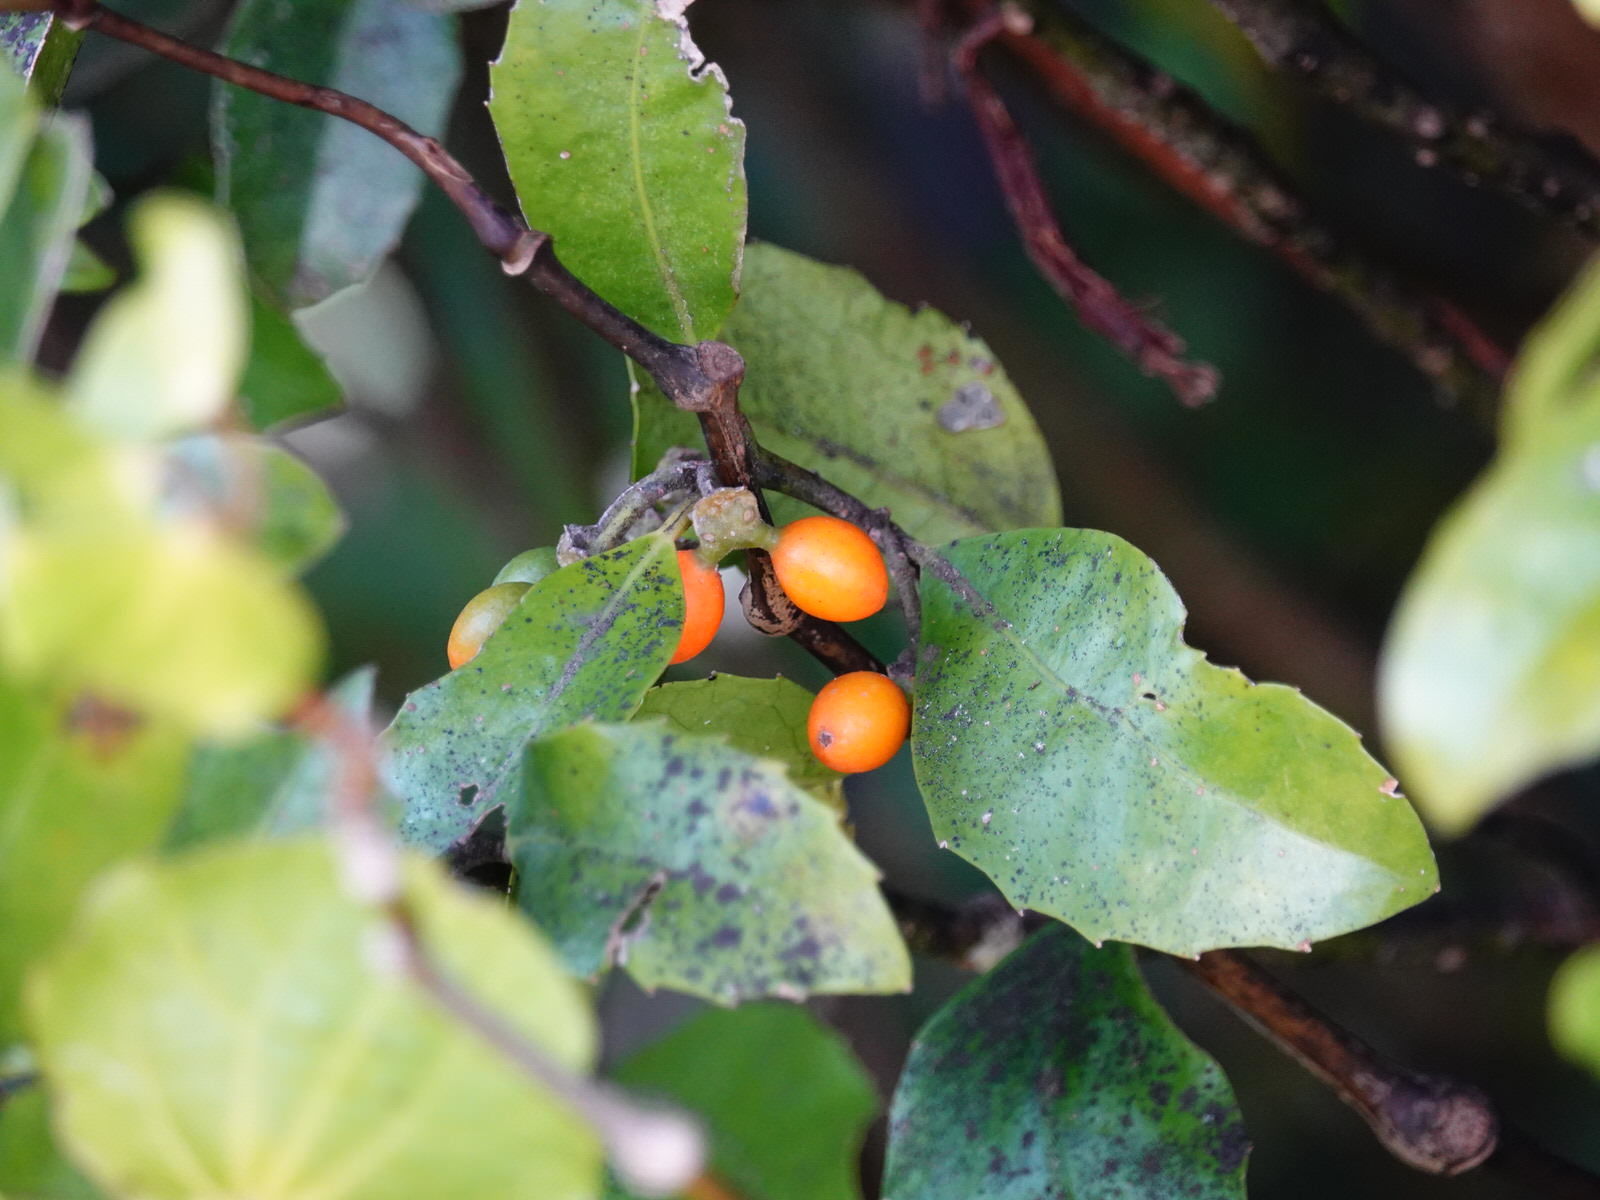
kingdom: Plantae
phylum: Tracheophyta
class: Magnoliopsida
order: Laurales
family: Monimiaceae
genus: Hedycarya
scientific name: Hedycarya arborea
